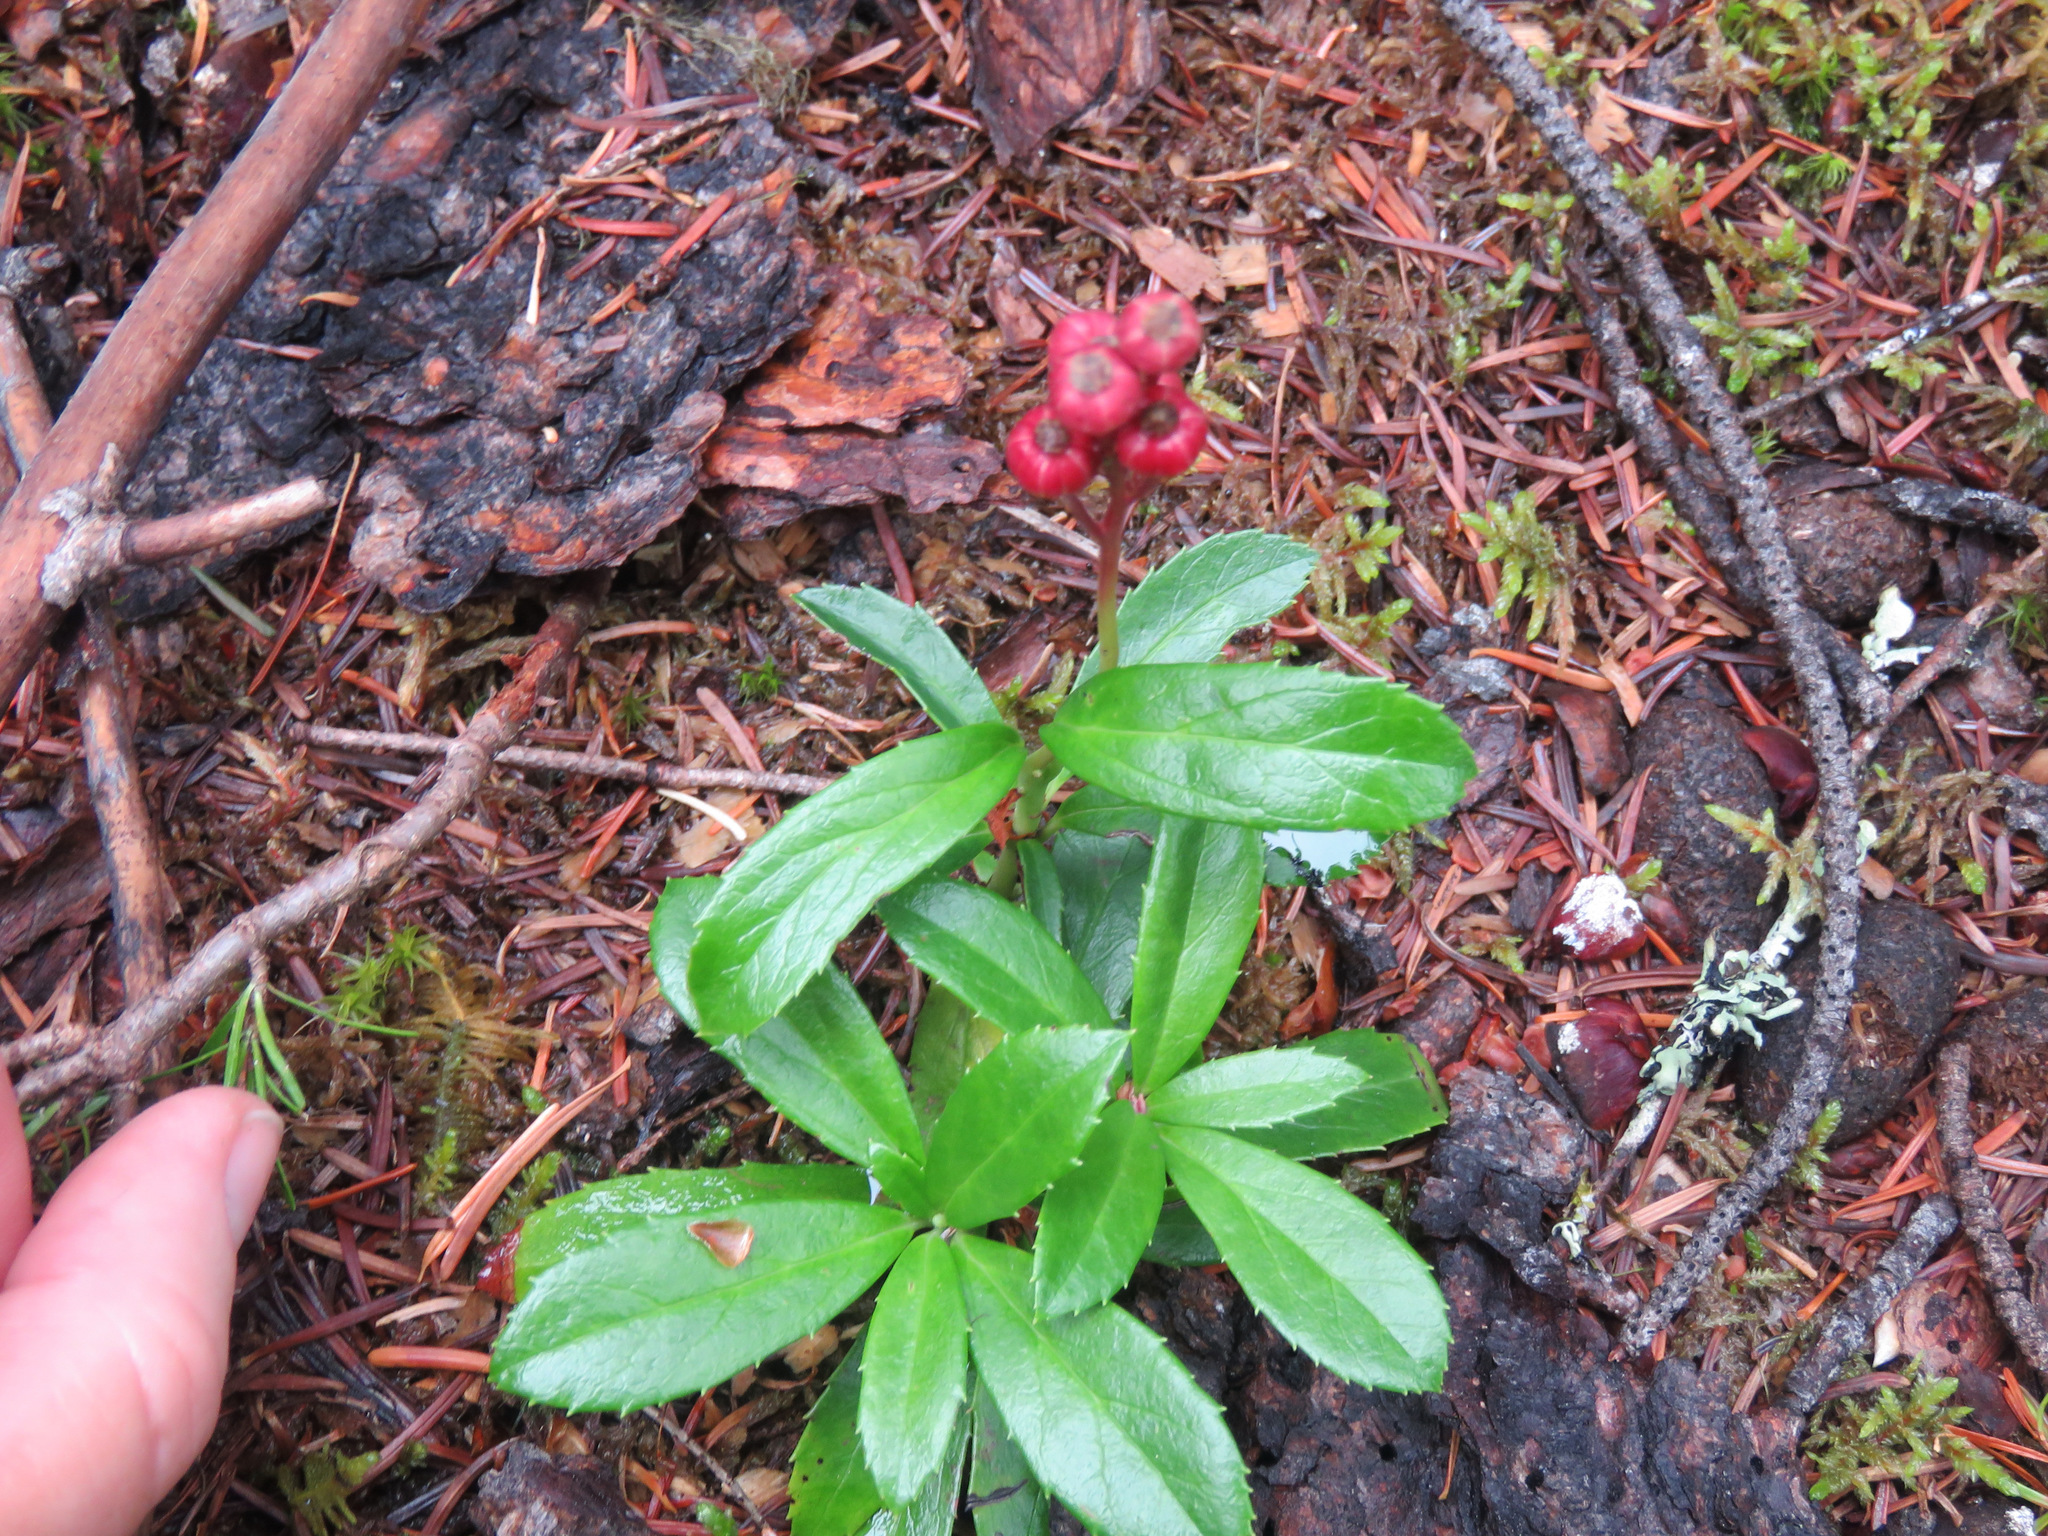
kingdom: Plantae
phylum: Tracheophyta
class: Magnoliopsida
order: Ericales
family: Ericaceae
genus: Chimaphila
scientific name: Chimaphila umbellata
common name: Pipsissewa
